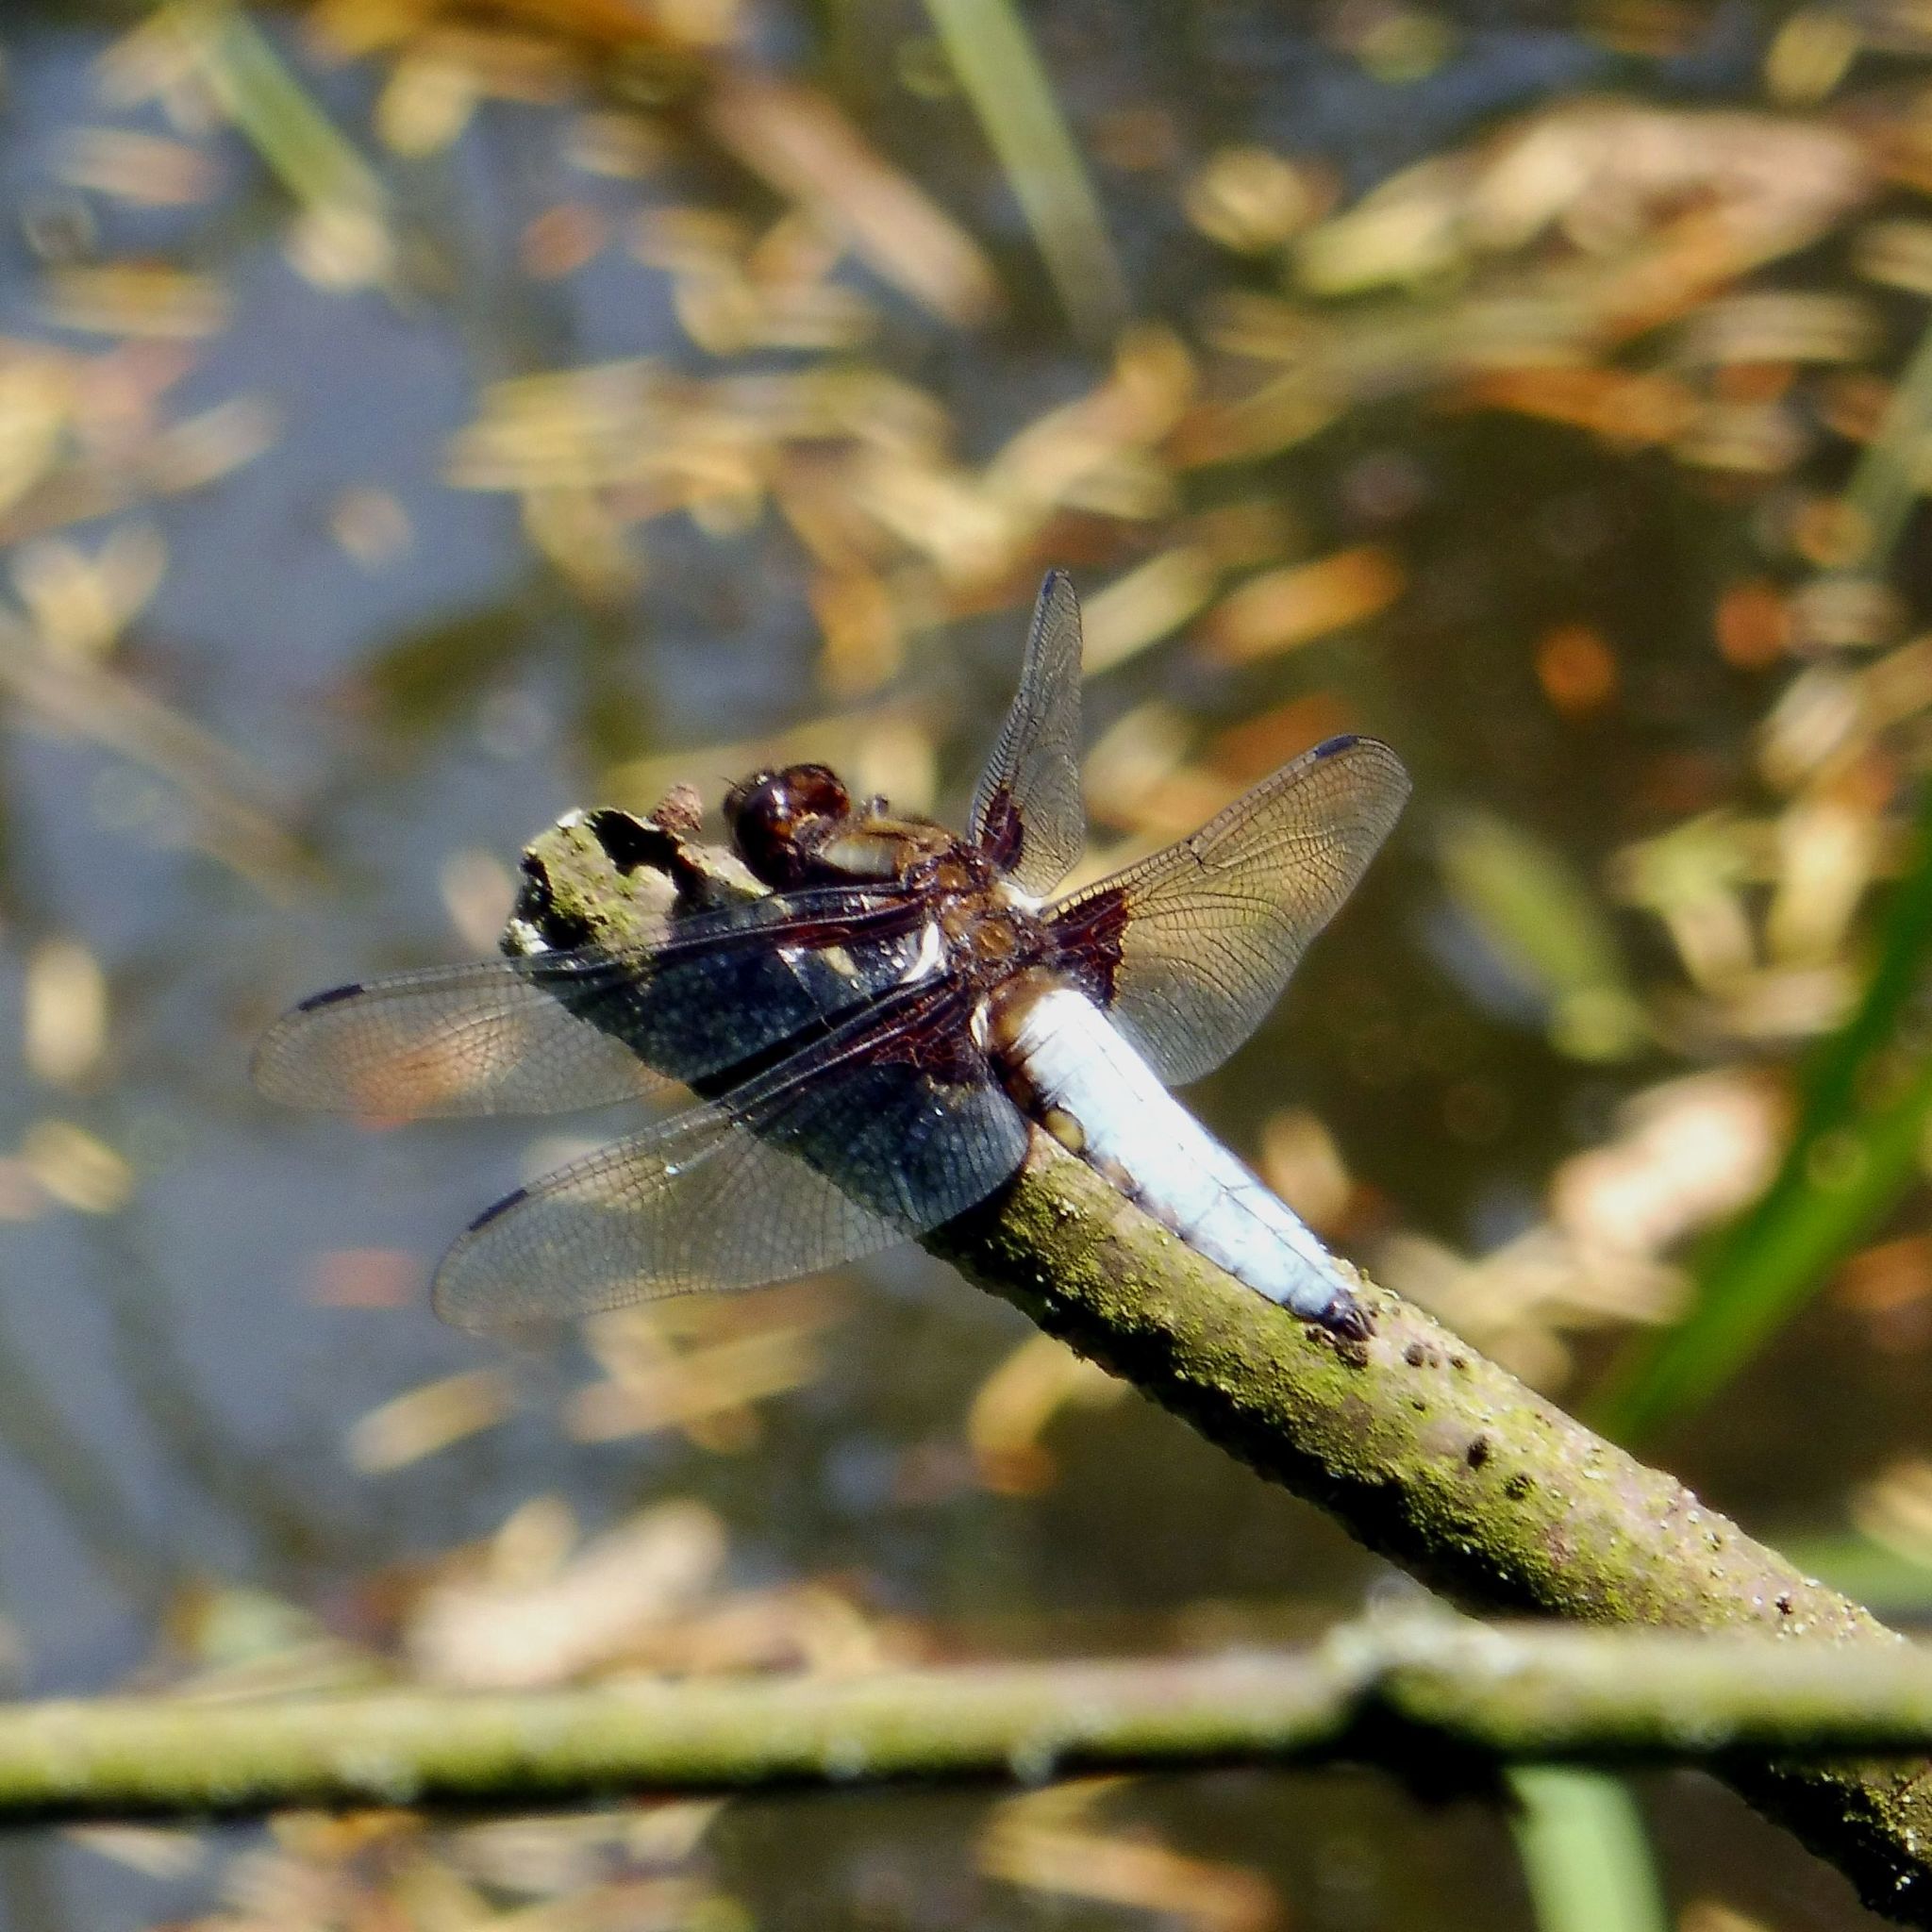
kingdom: Animalia
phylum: Arthropoda
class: Insecta
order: Odonata
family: Libellulidae
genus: Libellula
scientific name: Libellula depressa
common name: Broad-bodied chaser
